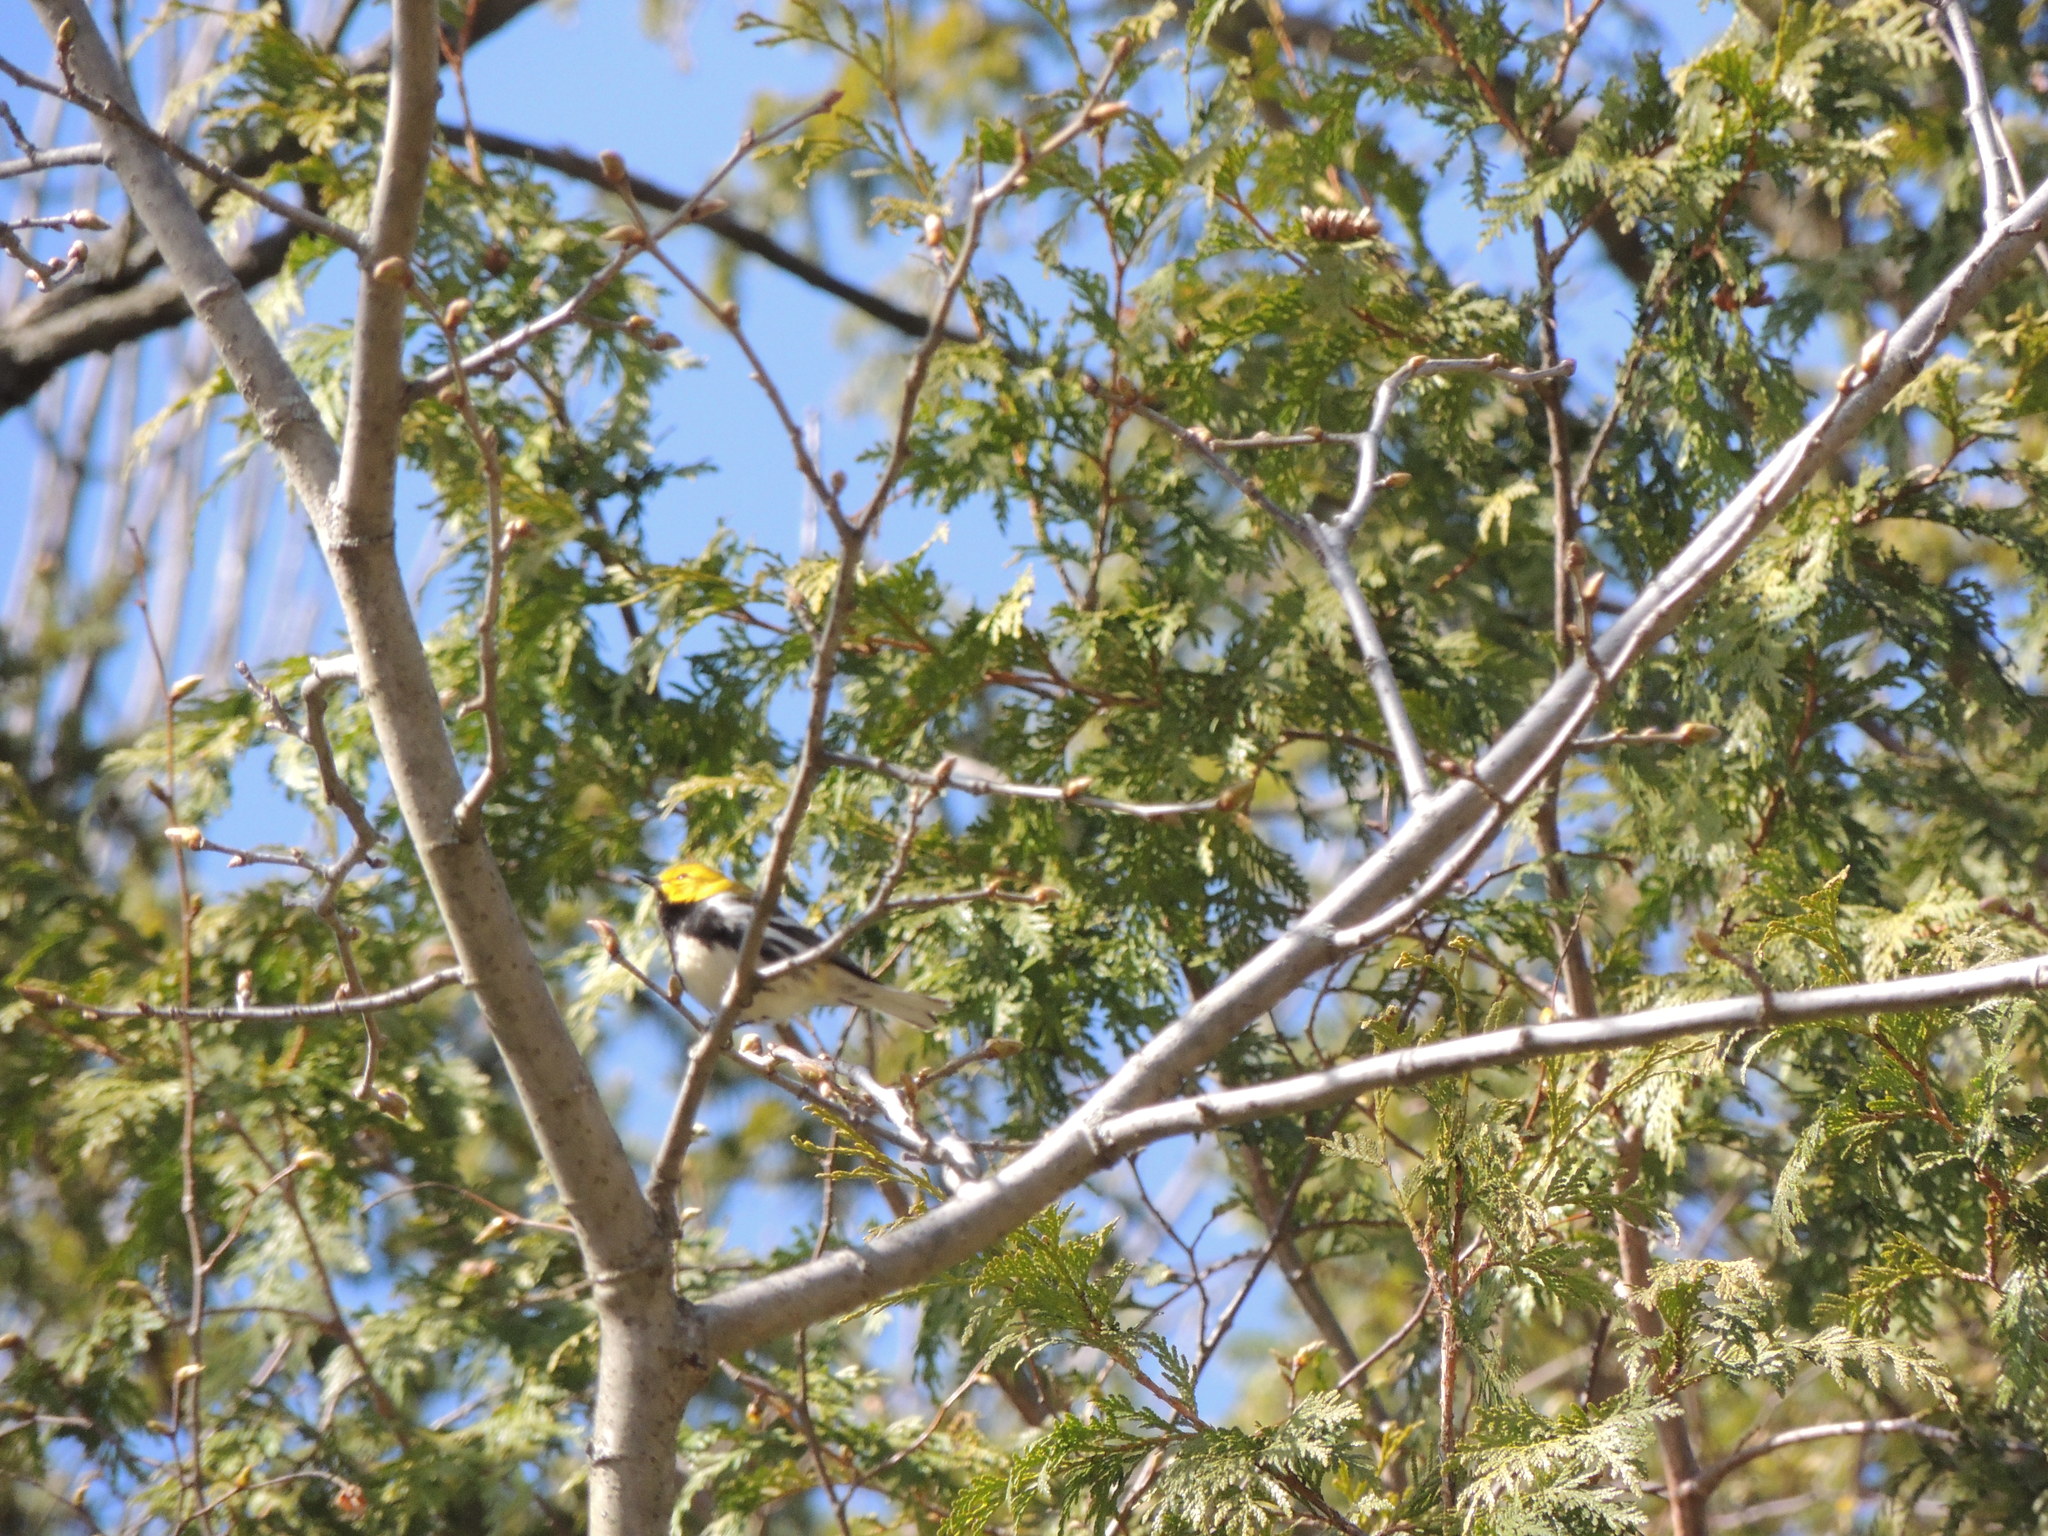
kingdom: Animalia
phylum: Chordata
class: Aves
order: Passeriformes
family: Parulidae
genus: Setophaga
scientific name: Setophaga virens
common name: Black-throated green warbler
